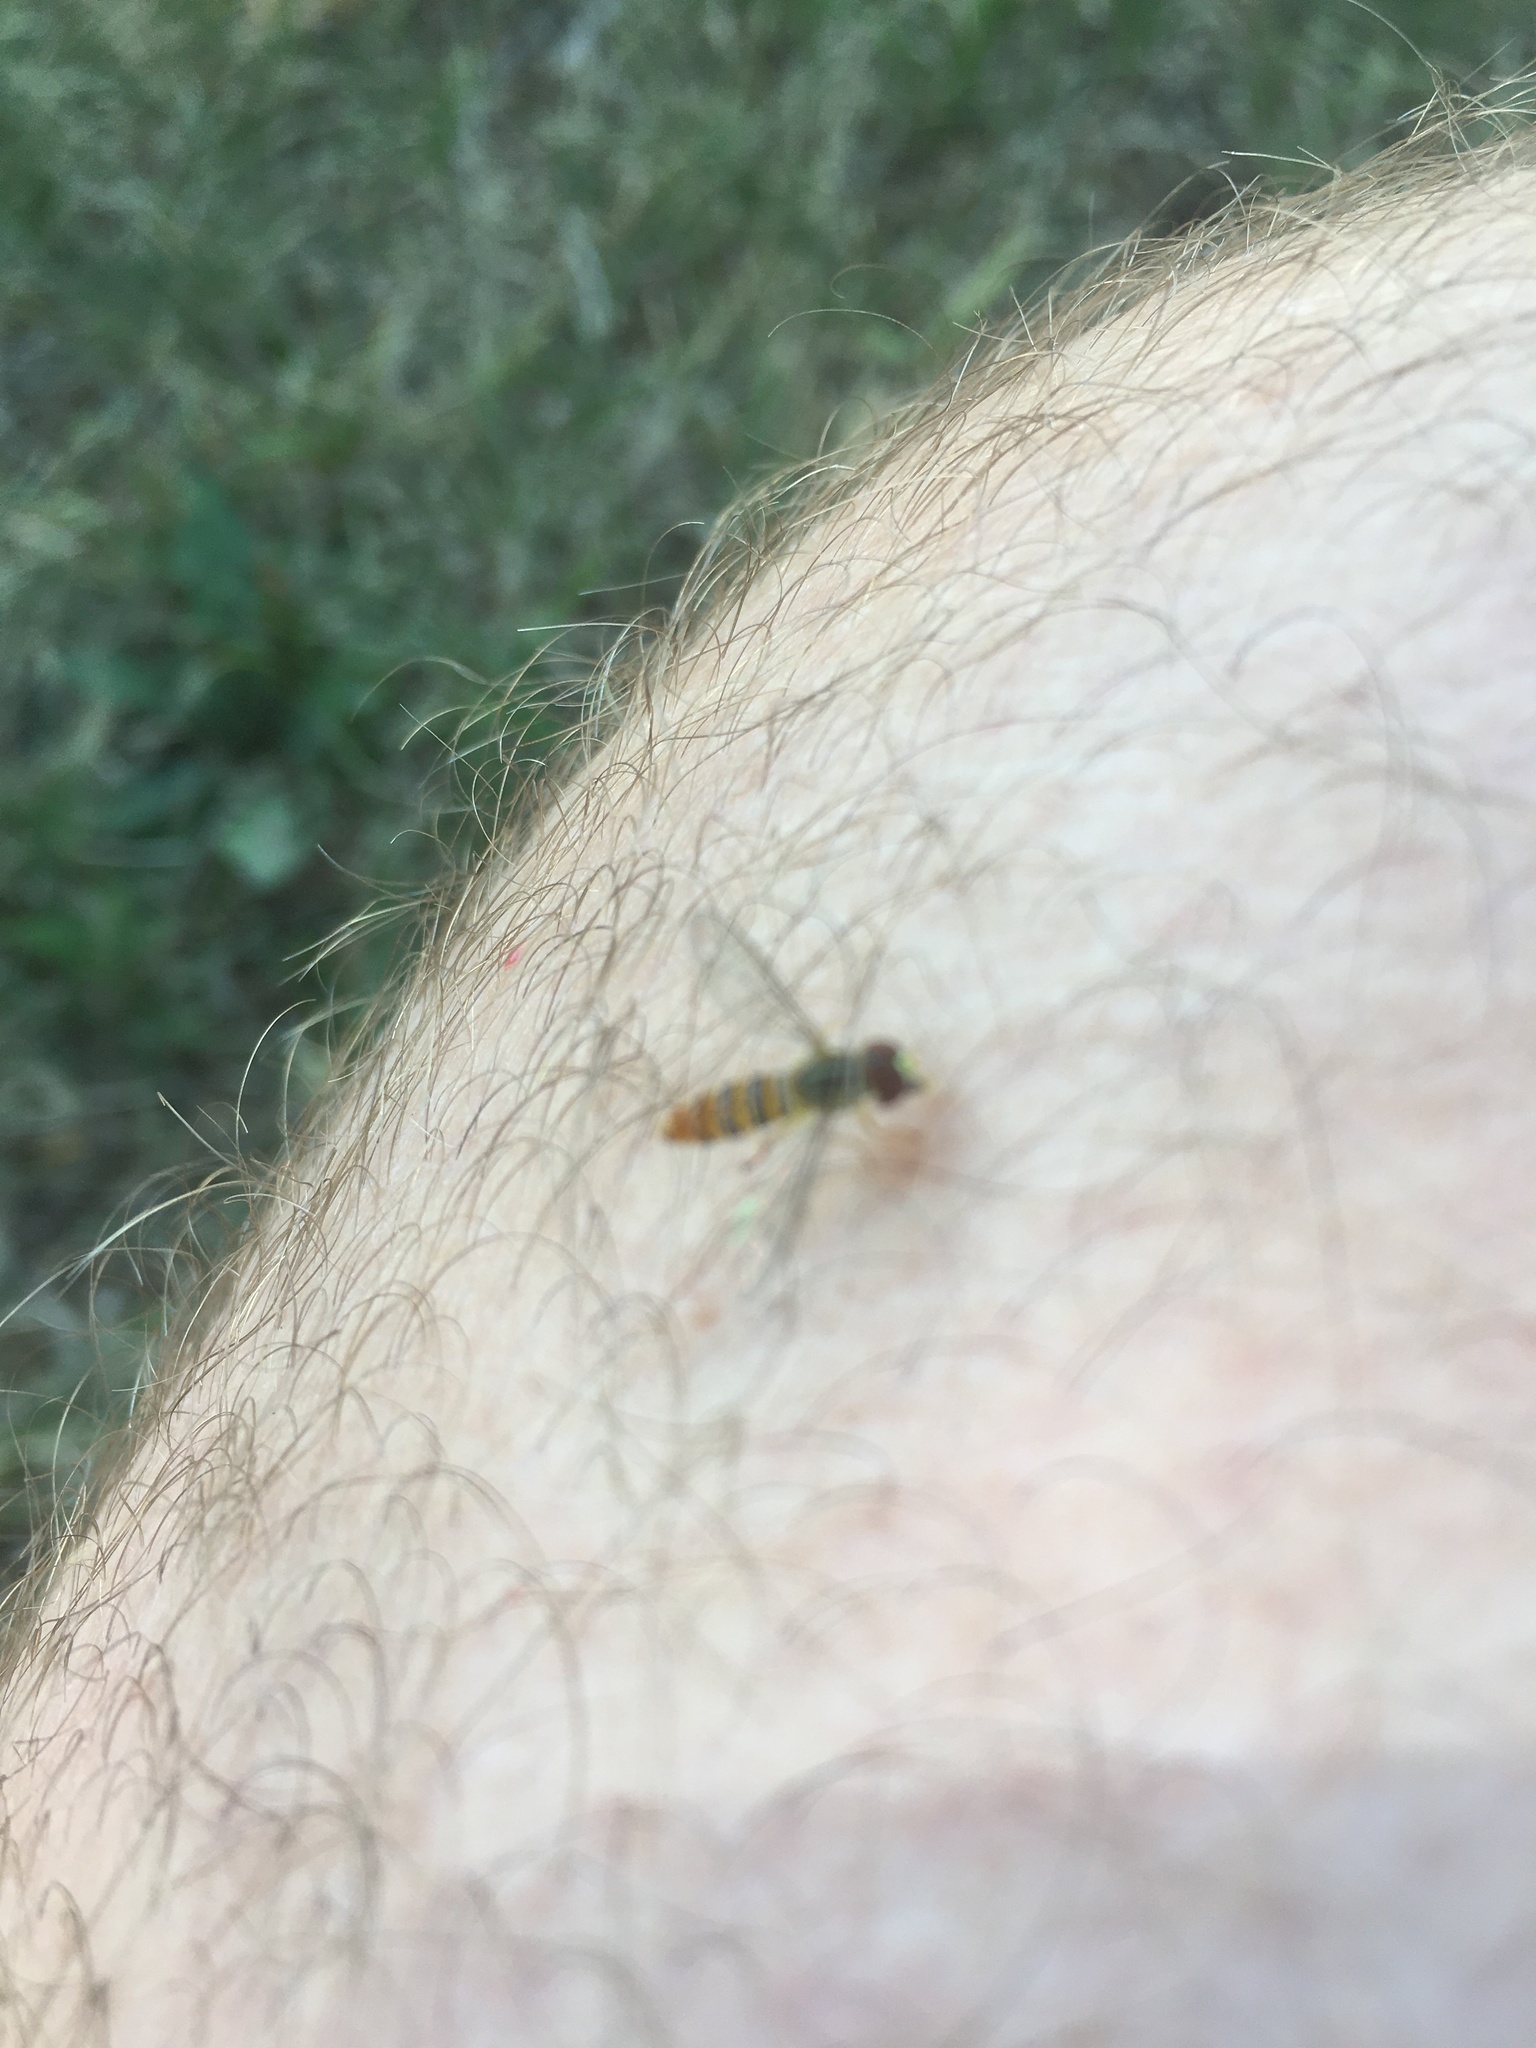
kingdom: Animalia
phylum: Arthropoda
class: Insecta
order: Diptera
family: Syrphidae
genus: Toxomerus
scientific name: Toxomerus politus
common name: Maize calligrapher
